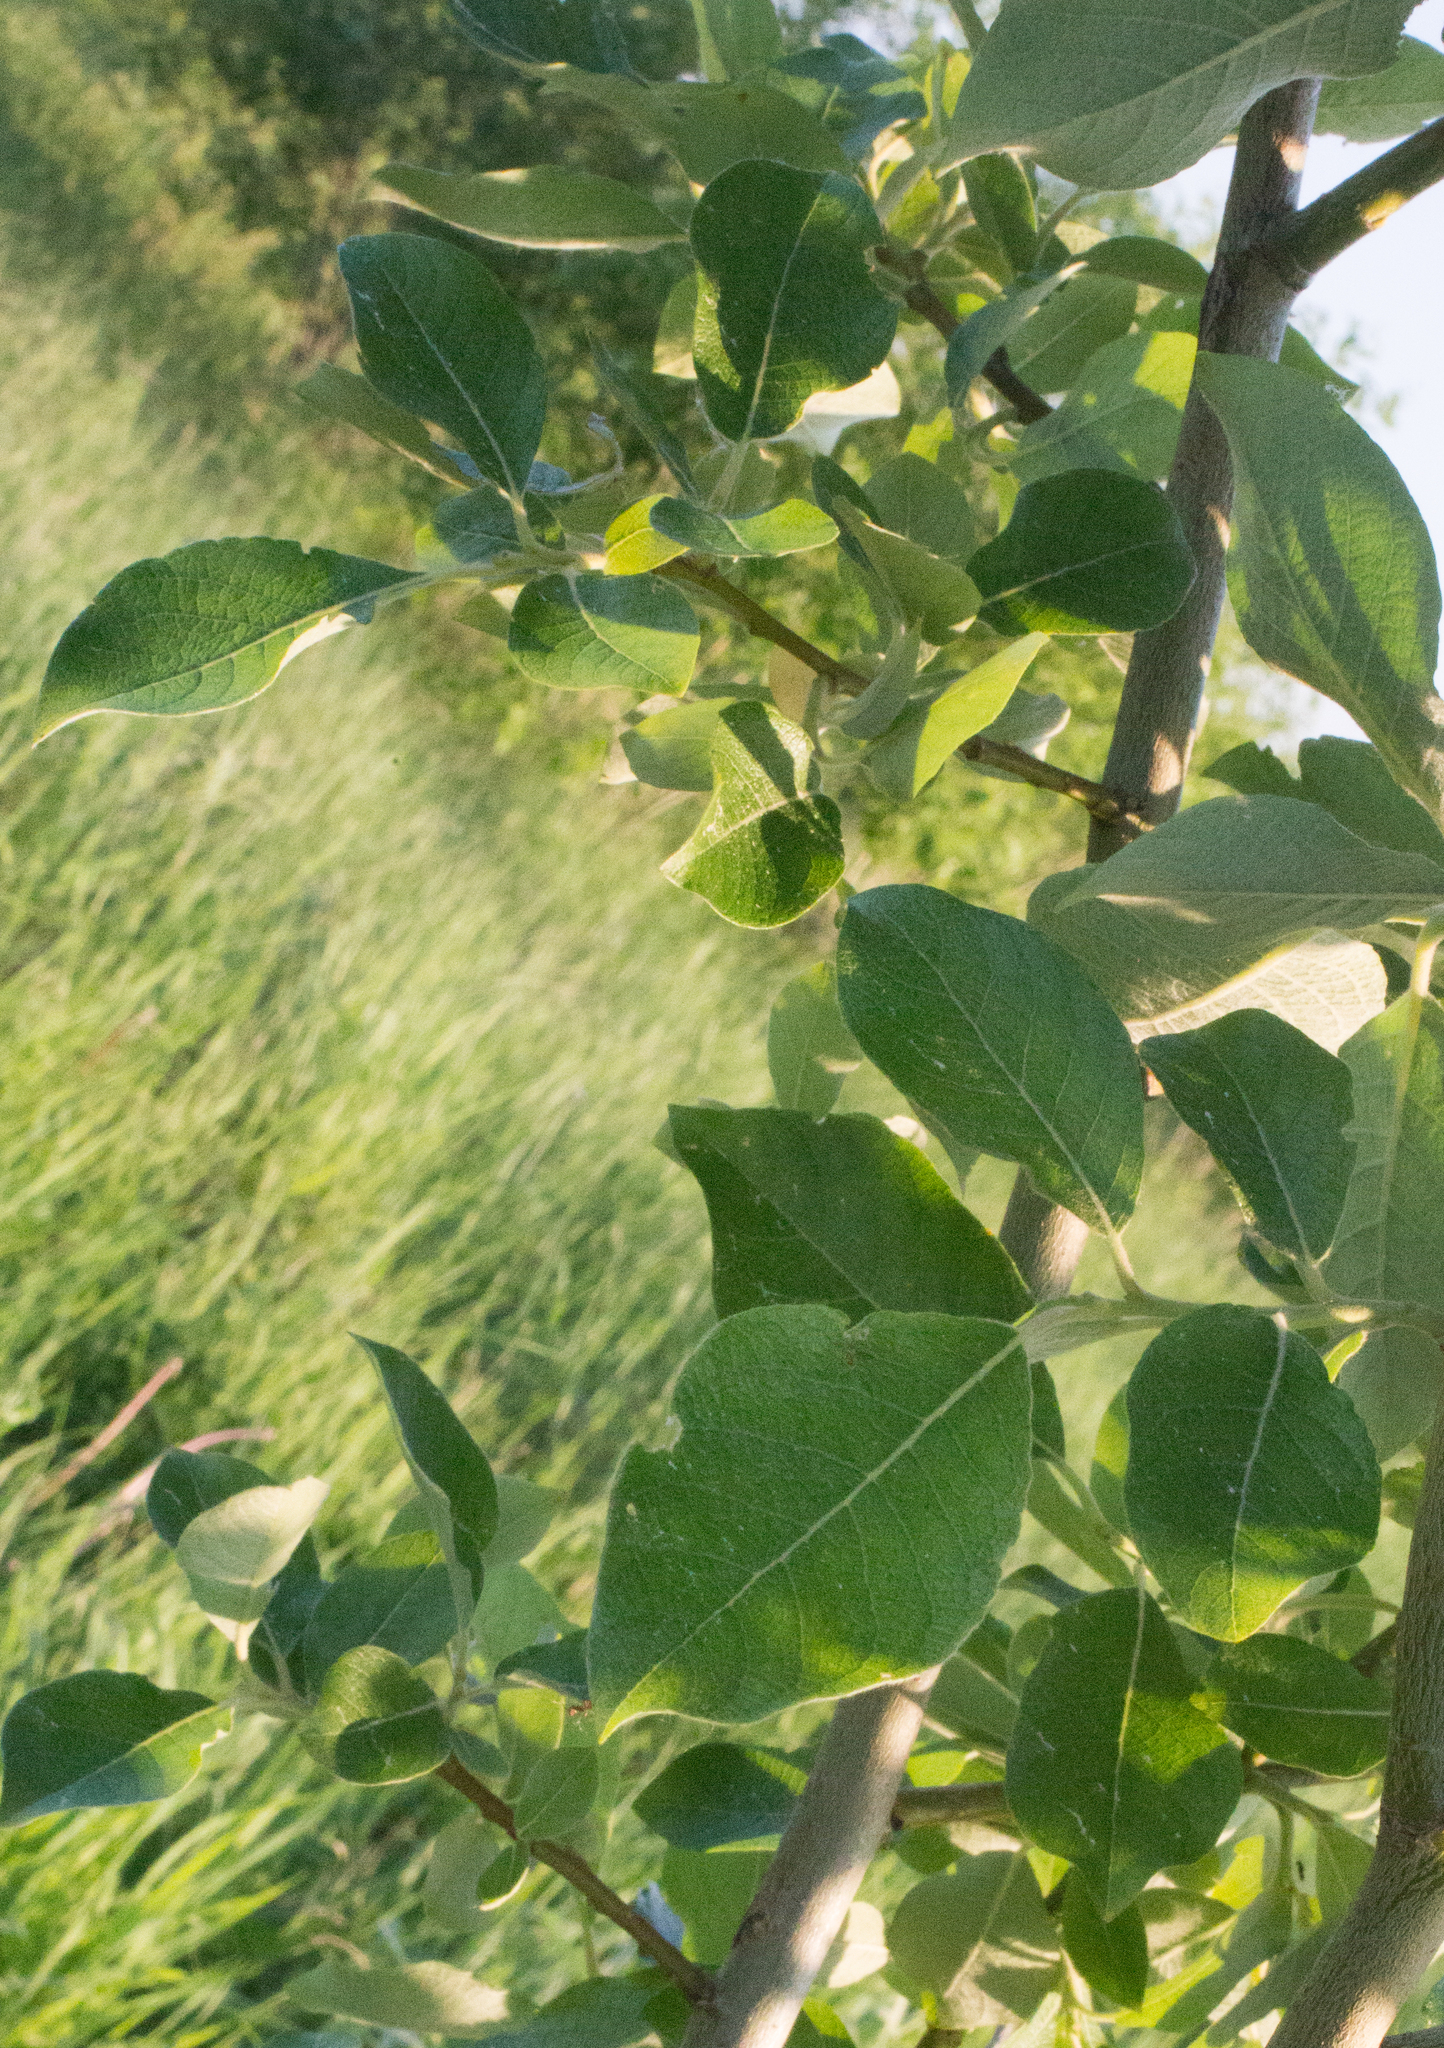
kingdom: Plantae
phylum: Tracheophyta
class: Magnoliopsida
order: Malpighiales
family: Salicaceae
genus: Salix
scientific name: Salix caprea
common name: Goat willow
